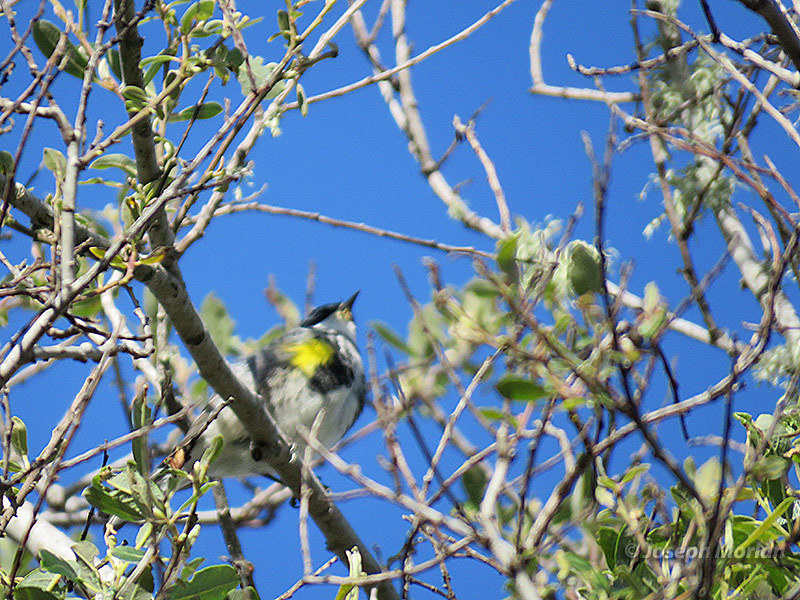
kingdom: Animalia
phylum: Chordata
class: Aves
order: Passeriformes
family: Parulidae
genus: Setophaga
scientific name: Setophaga coronata
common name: Myrtle warbler
